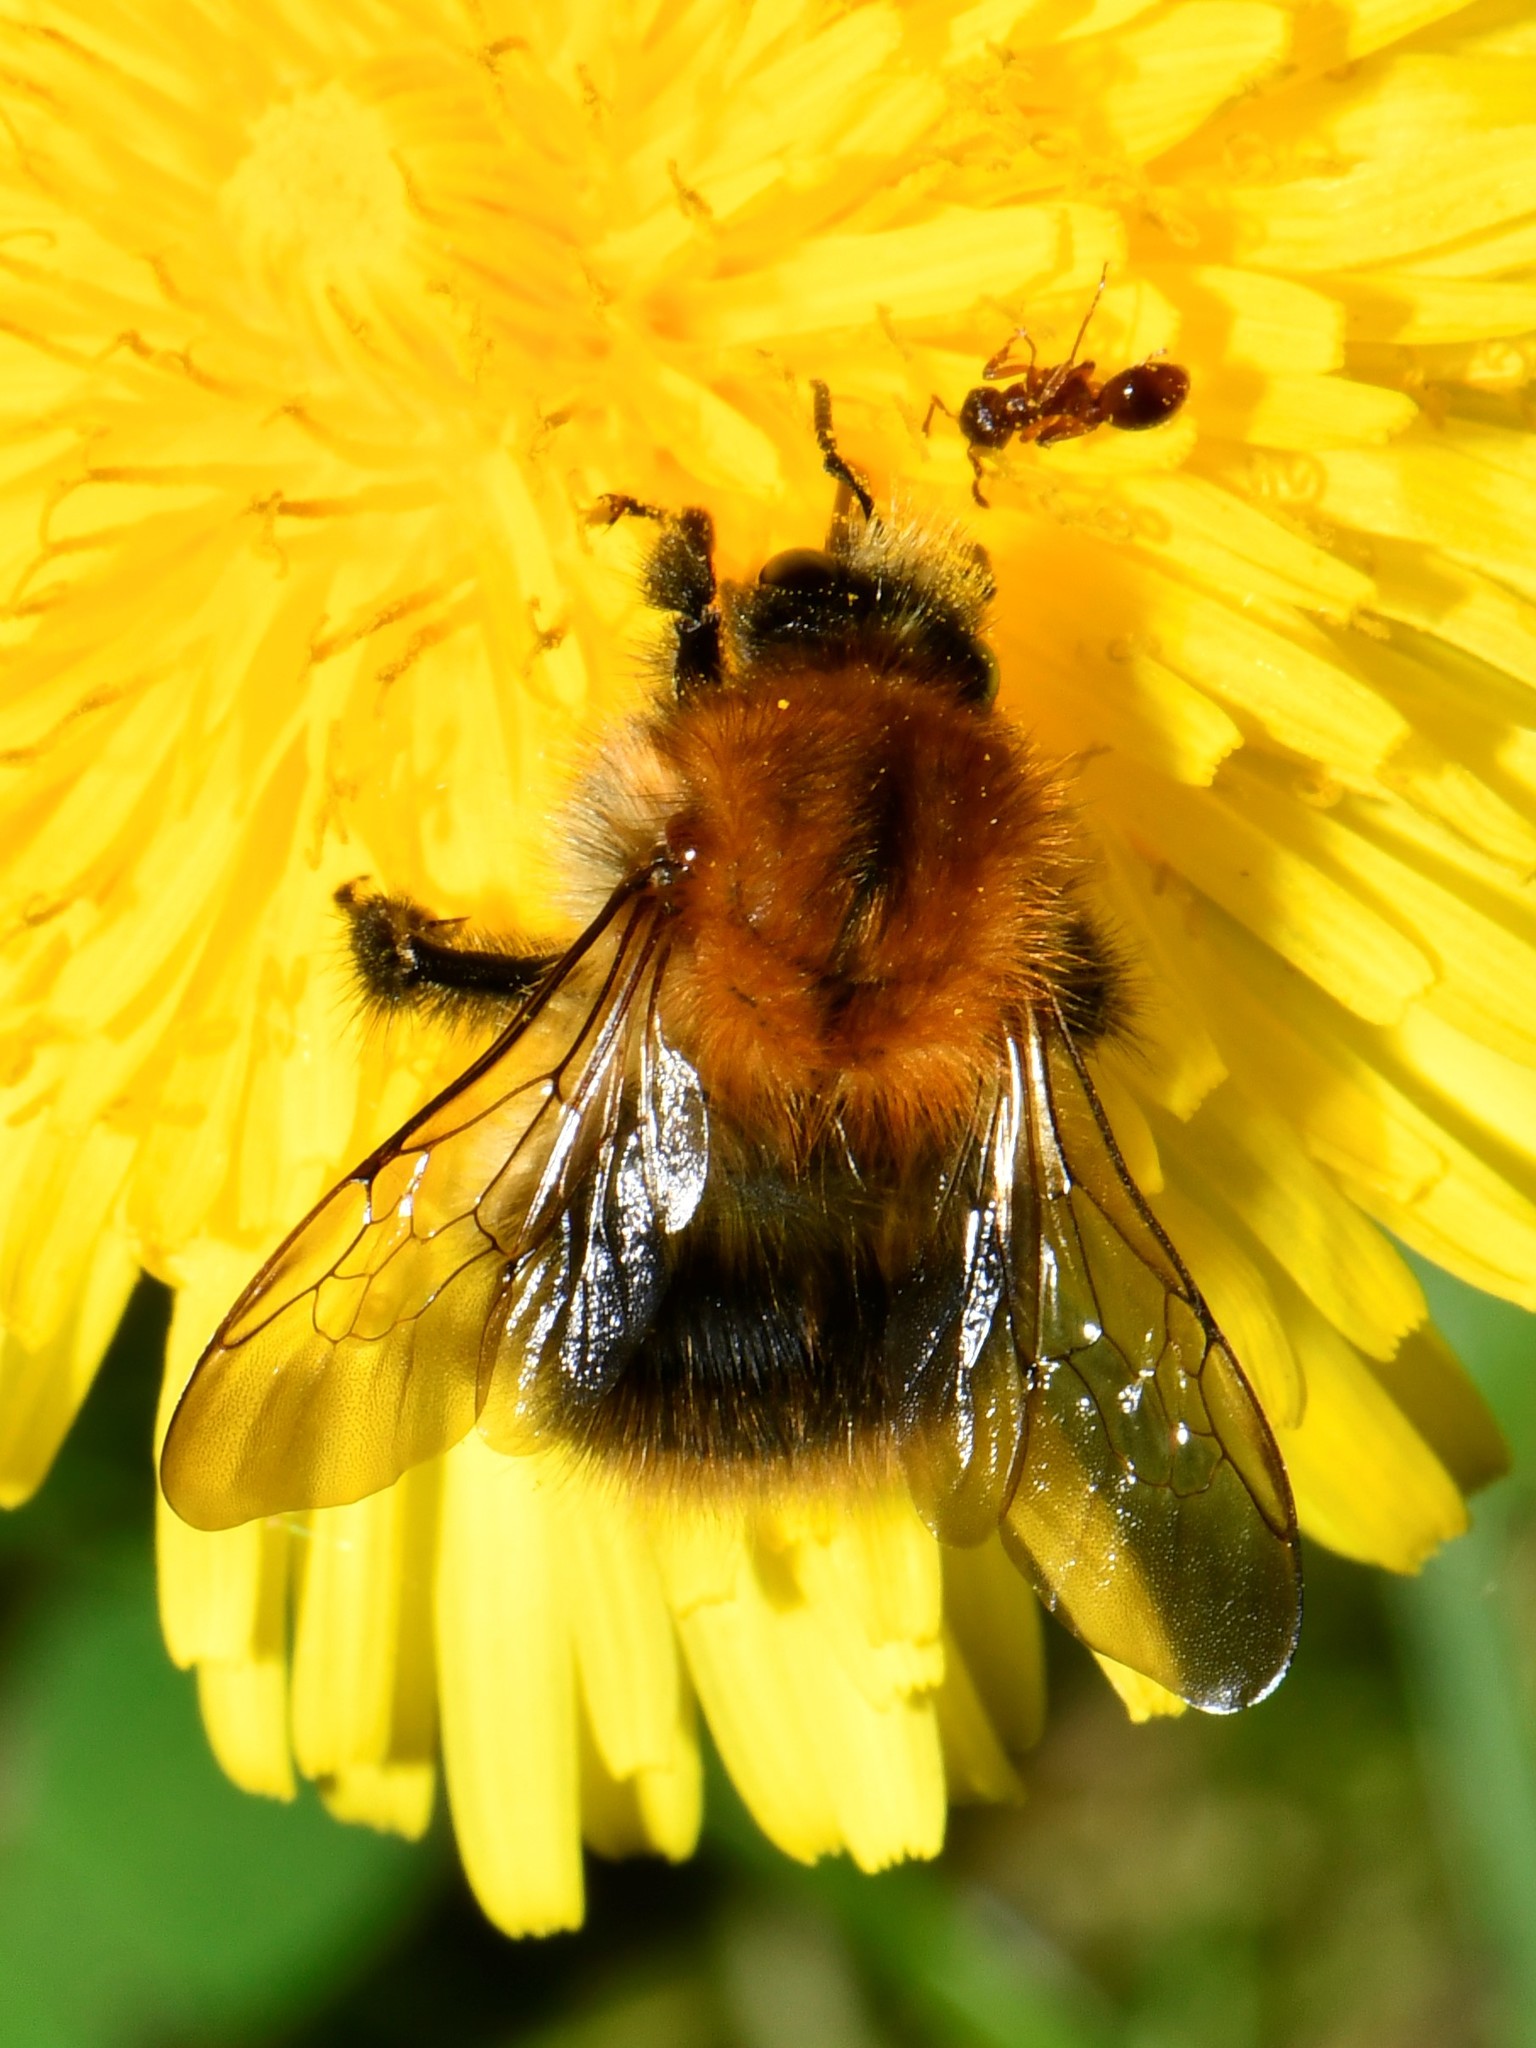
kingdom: Animalia
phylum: Arthropoda
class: Insecta
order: Hymenoptera
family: Apidae
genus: Bombus
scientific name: Bombus pascuorum
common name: Common carder bee
